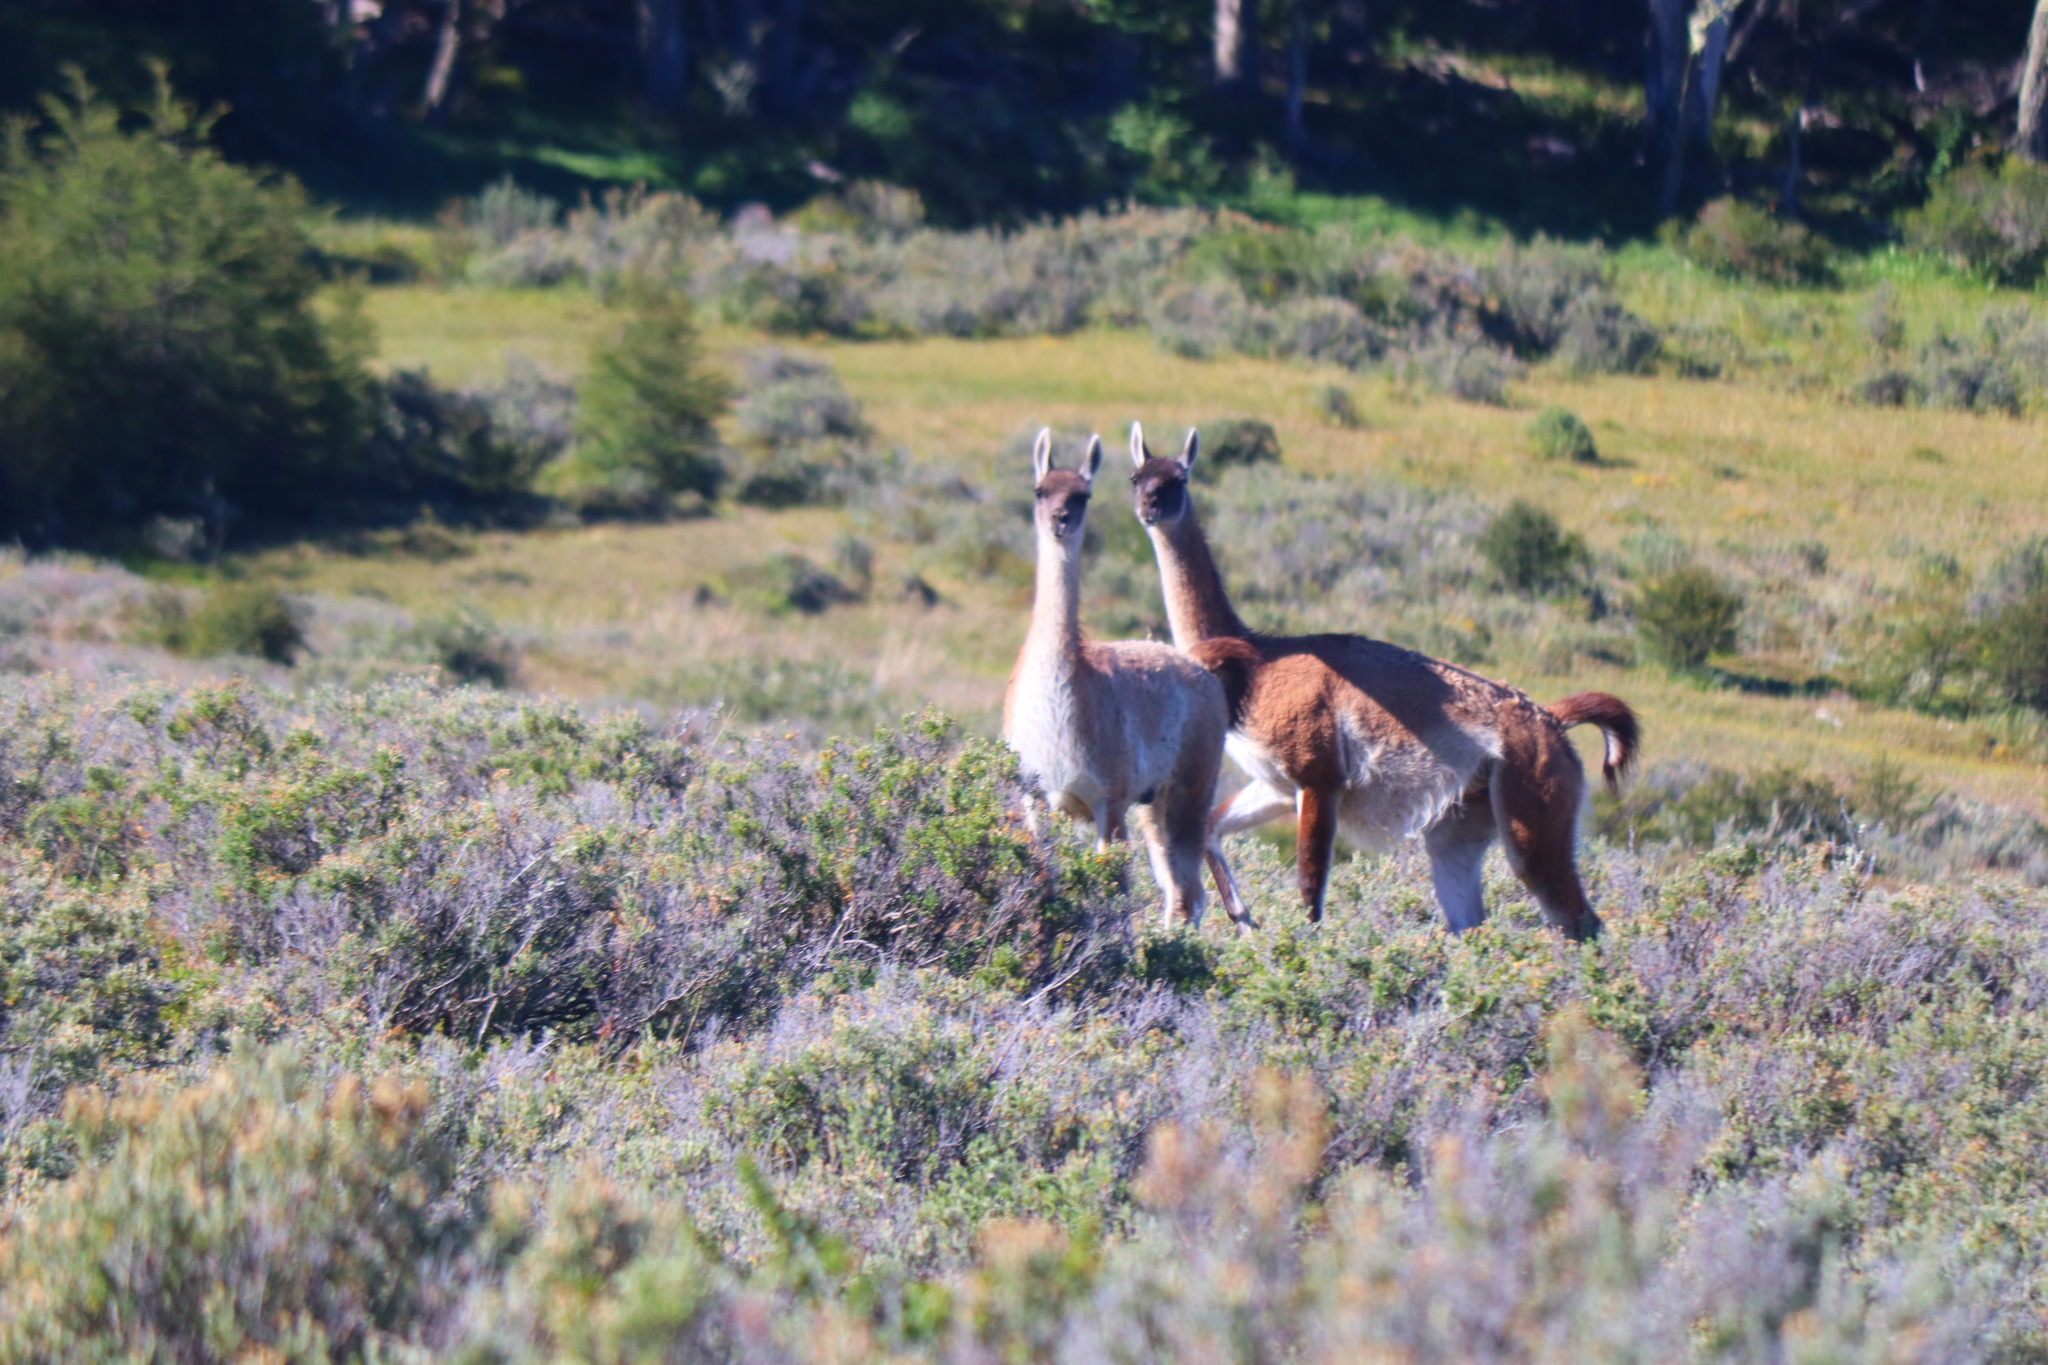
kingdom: Animalia
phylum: Chordata
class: Mammalia
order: Artiodactyla
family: Camelidae
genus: Lama
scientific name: Lama glama
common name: Llama
